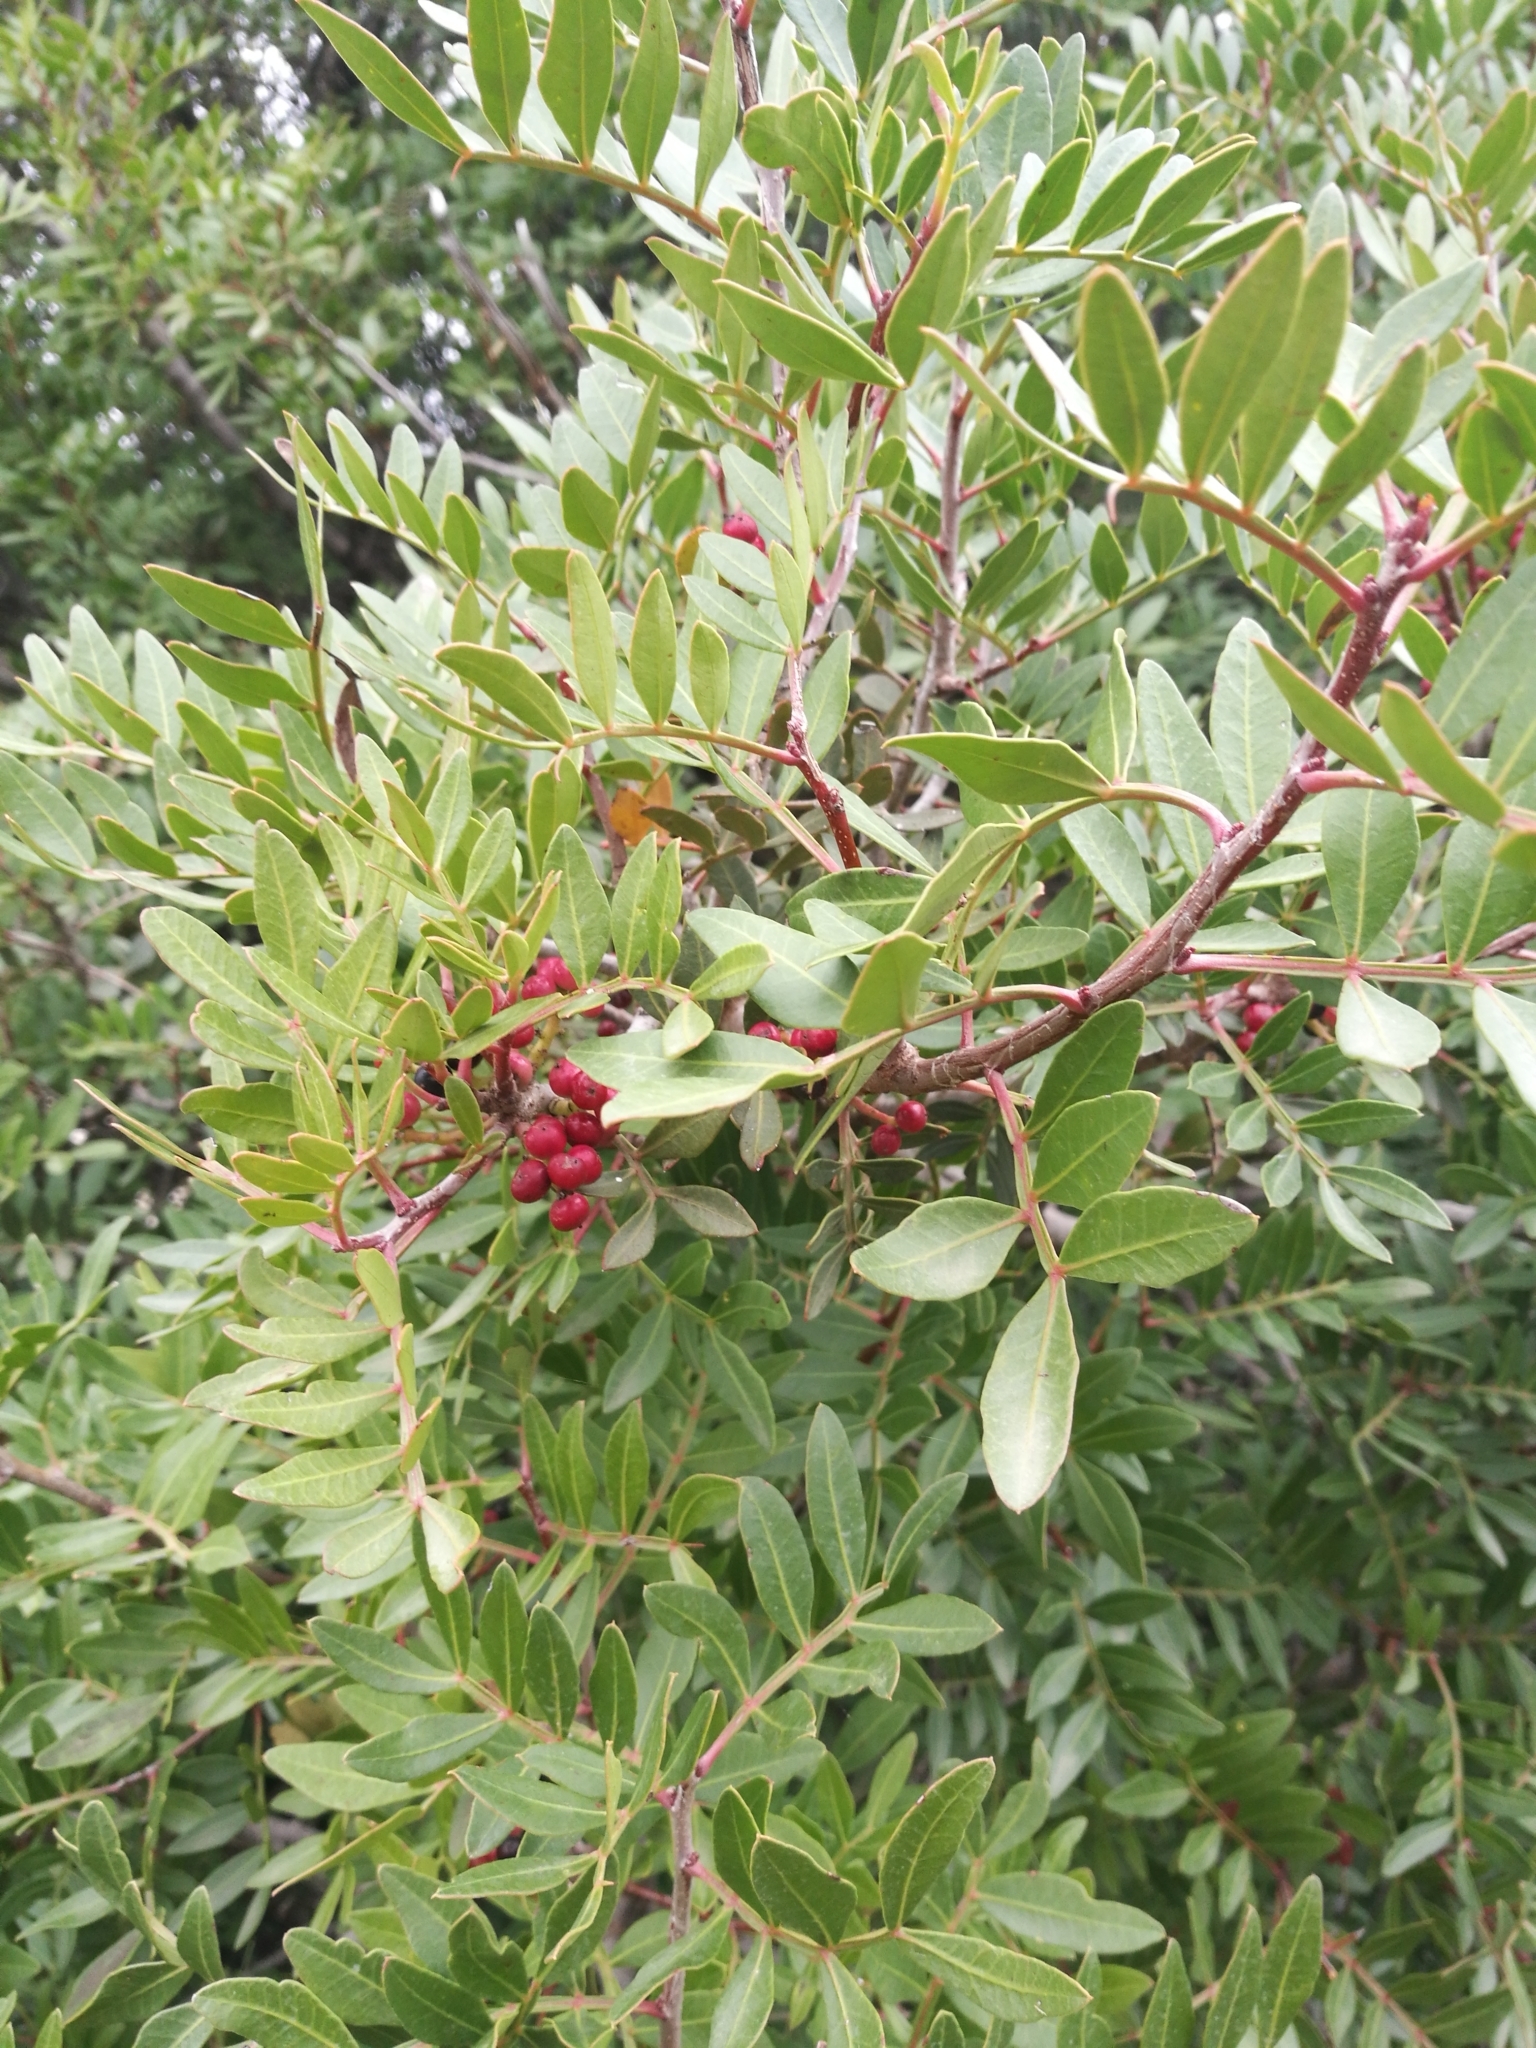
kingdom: Plantae
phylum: Tracheophyta
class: Magnoliopsida
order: Sapindales
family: Anacardiaceae
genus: Pistacia
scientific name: Pistacia lentiscus
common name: Lentisk
